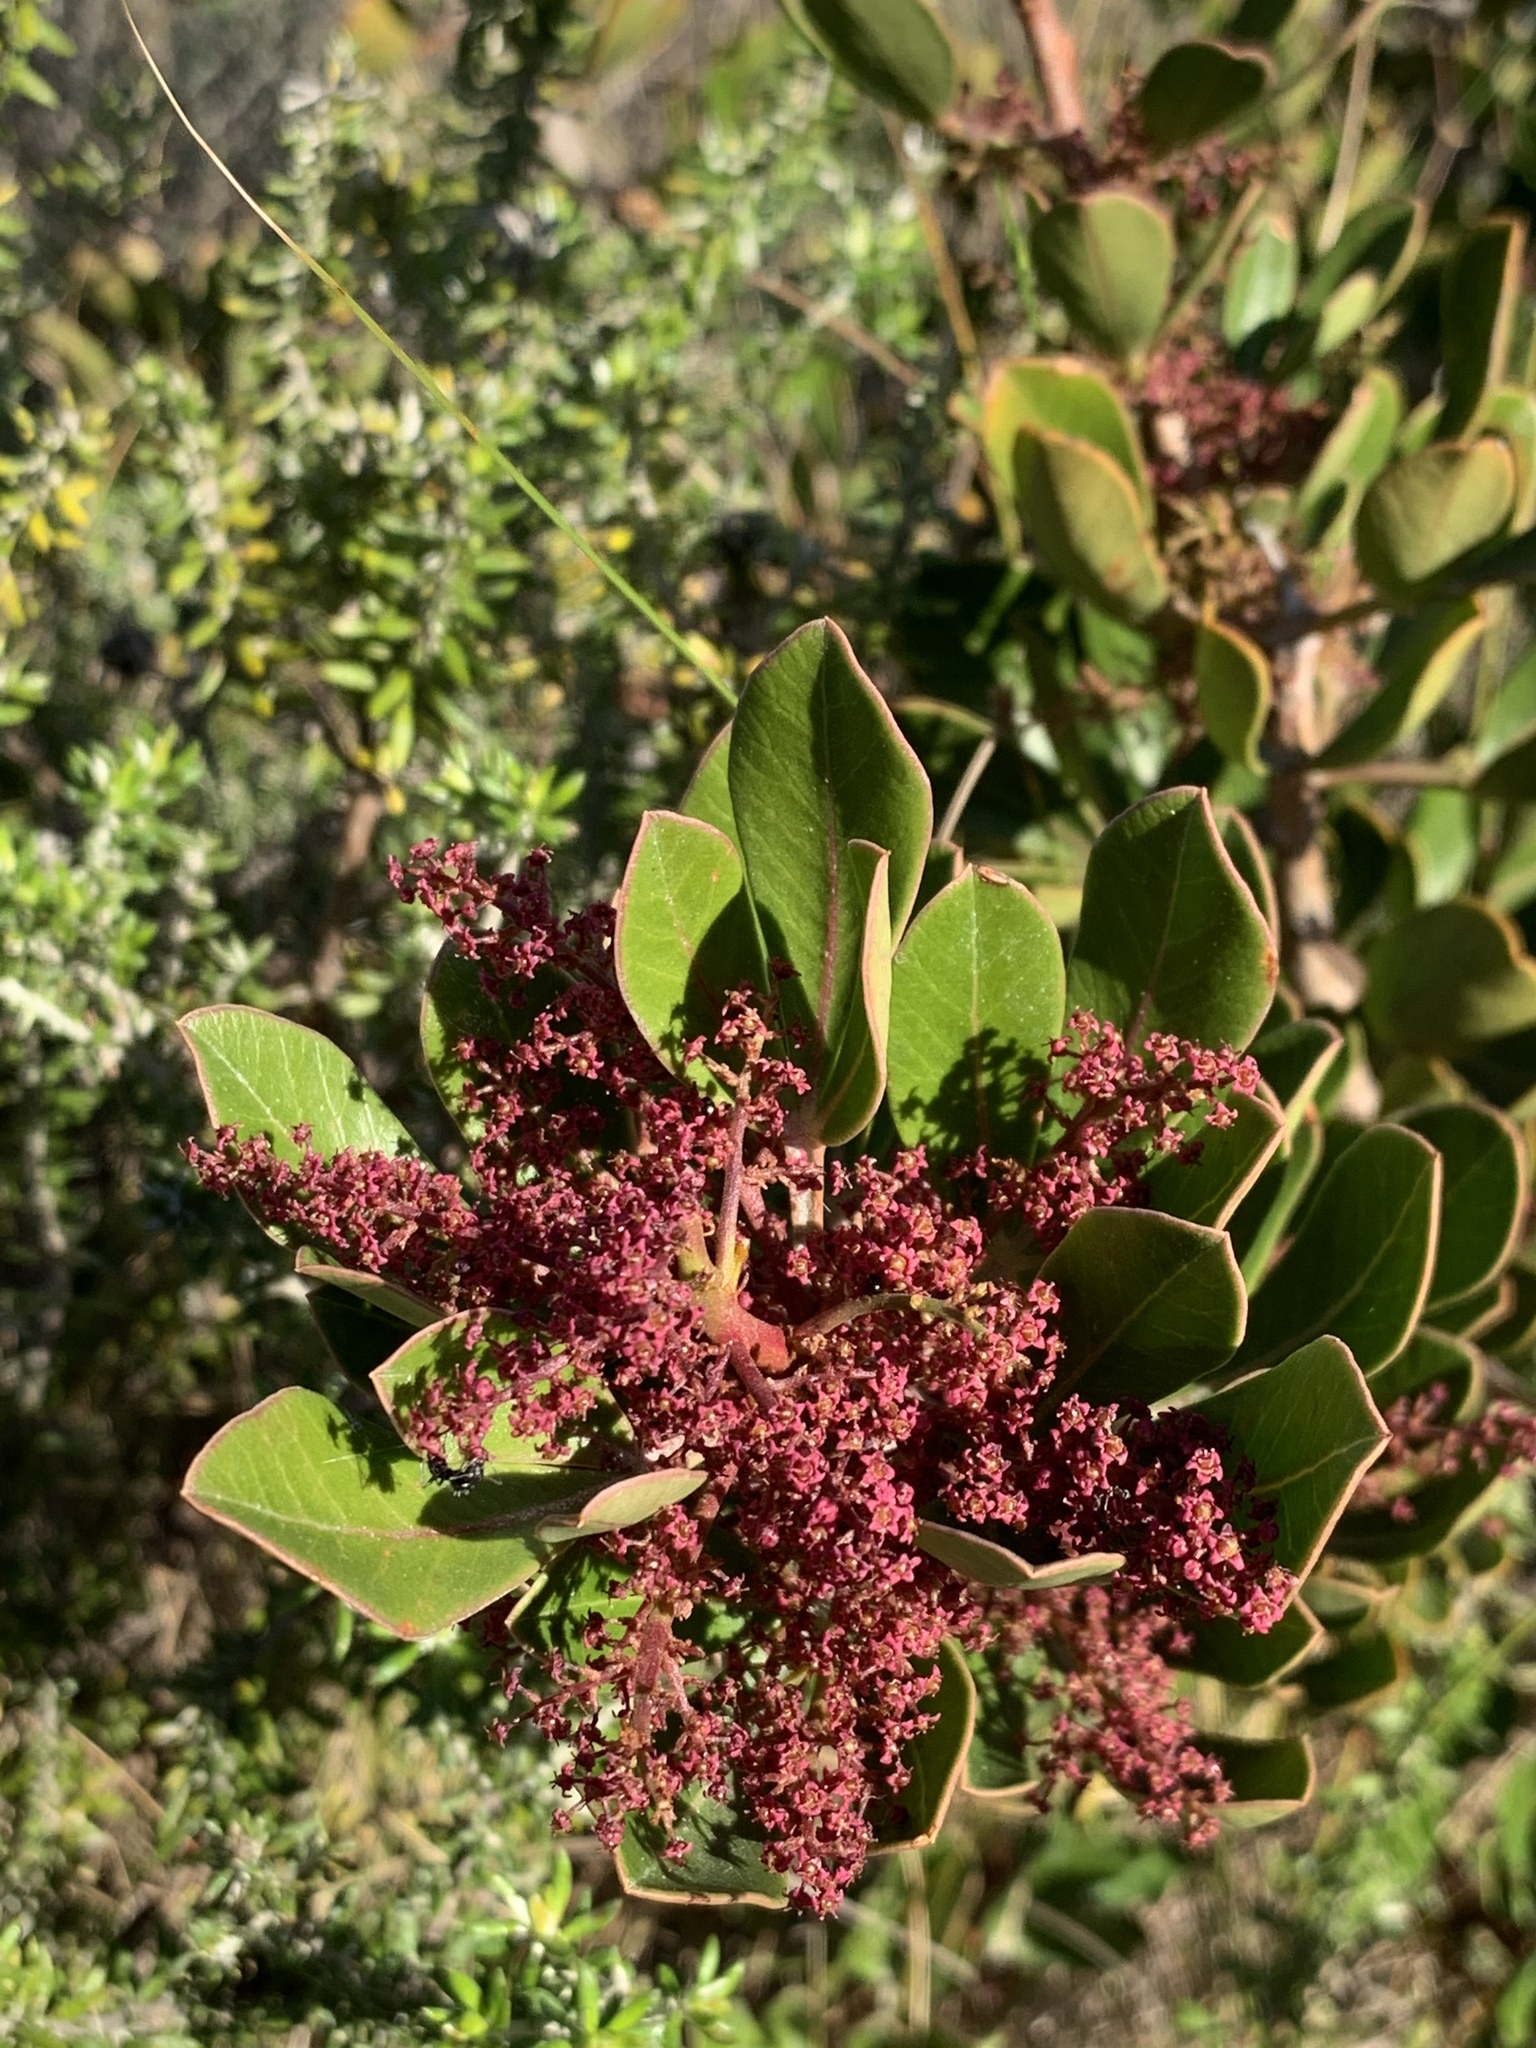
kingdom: Plantae
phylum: Tracheophyta
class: Magnoliopsida
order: Sapindales
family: Anacardiaceae
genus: Searsia
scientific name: Searsia scytophylla
